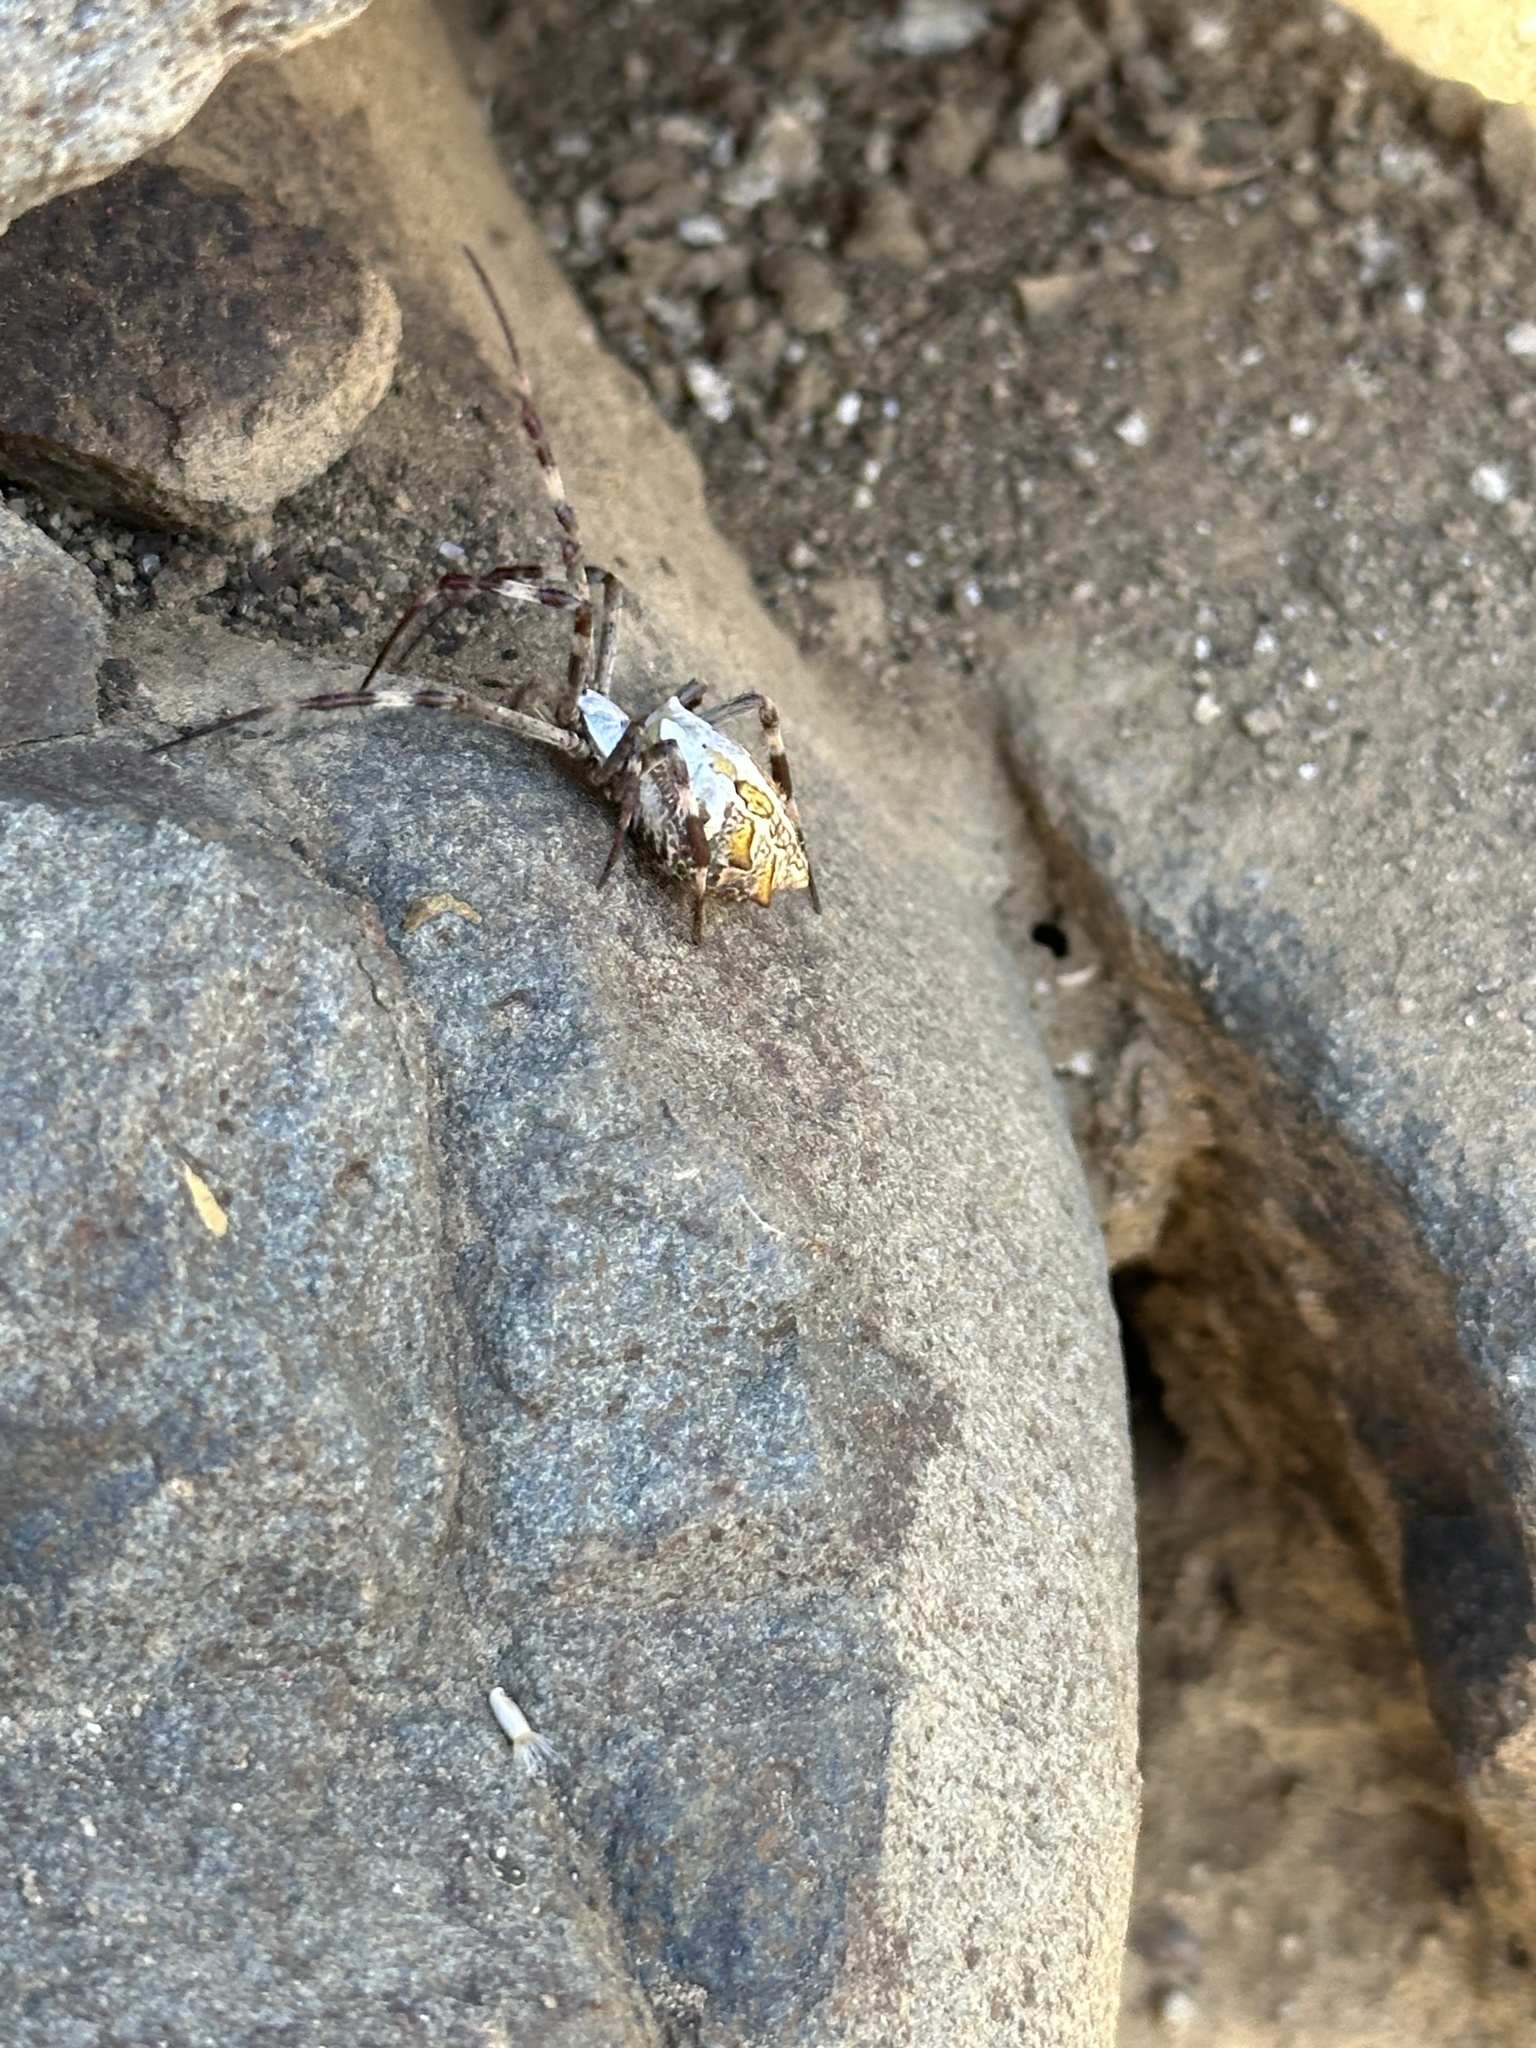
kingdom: Animalia
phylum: Arthropoda
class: Arachnida
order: Araneae
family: Araneidae
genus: Argiope
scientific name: Argiope argentata
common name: Orb weavers
